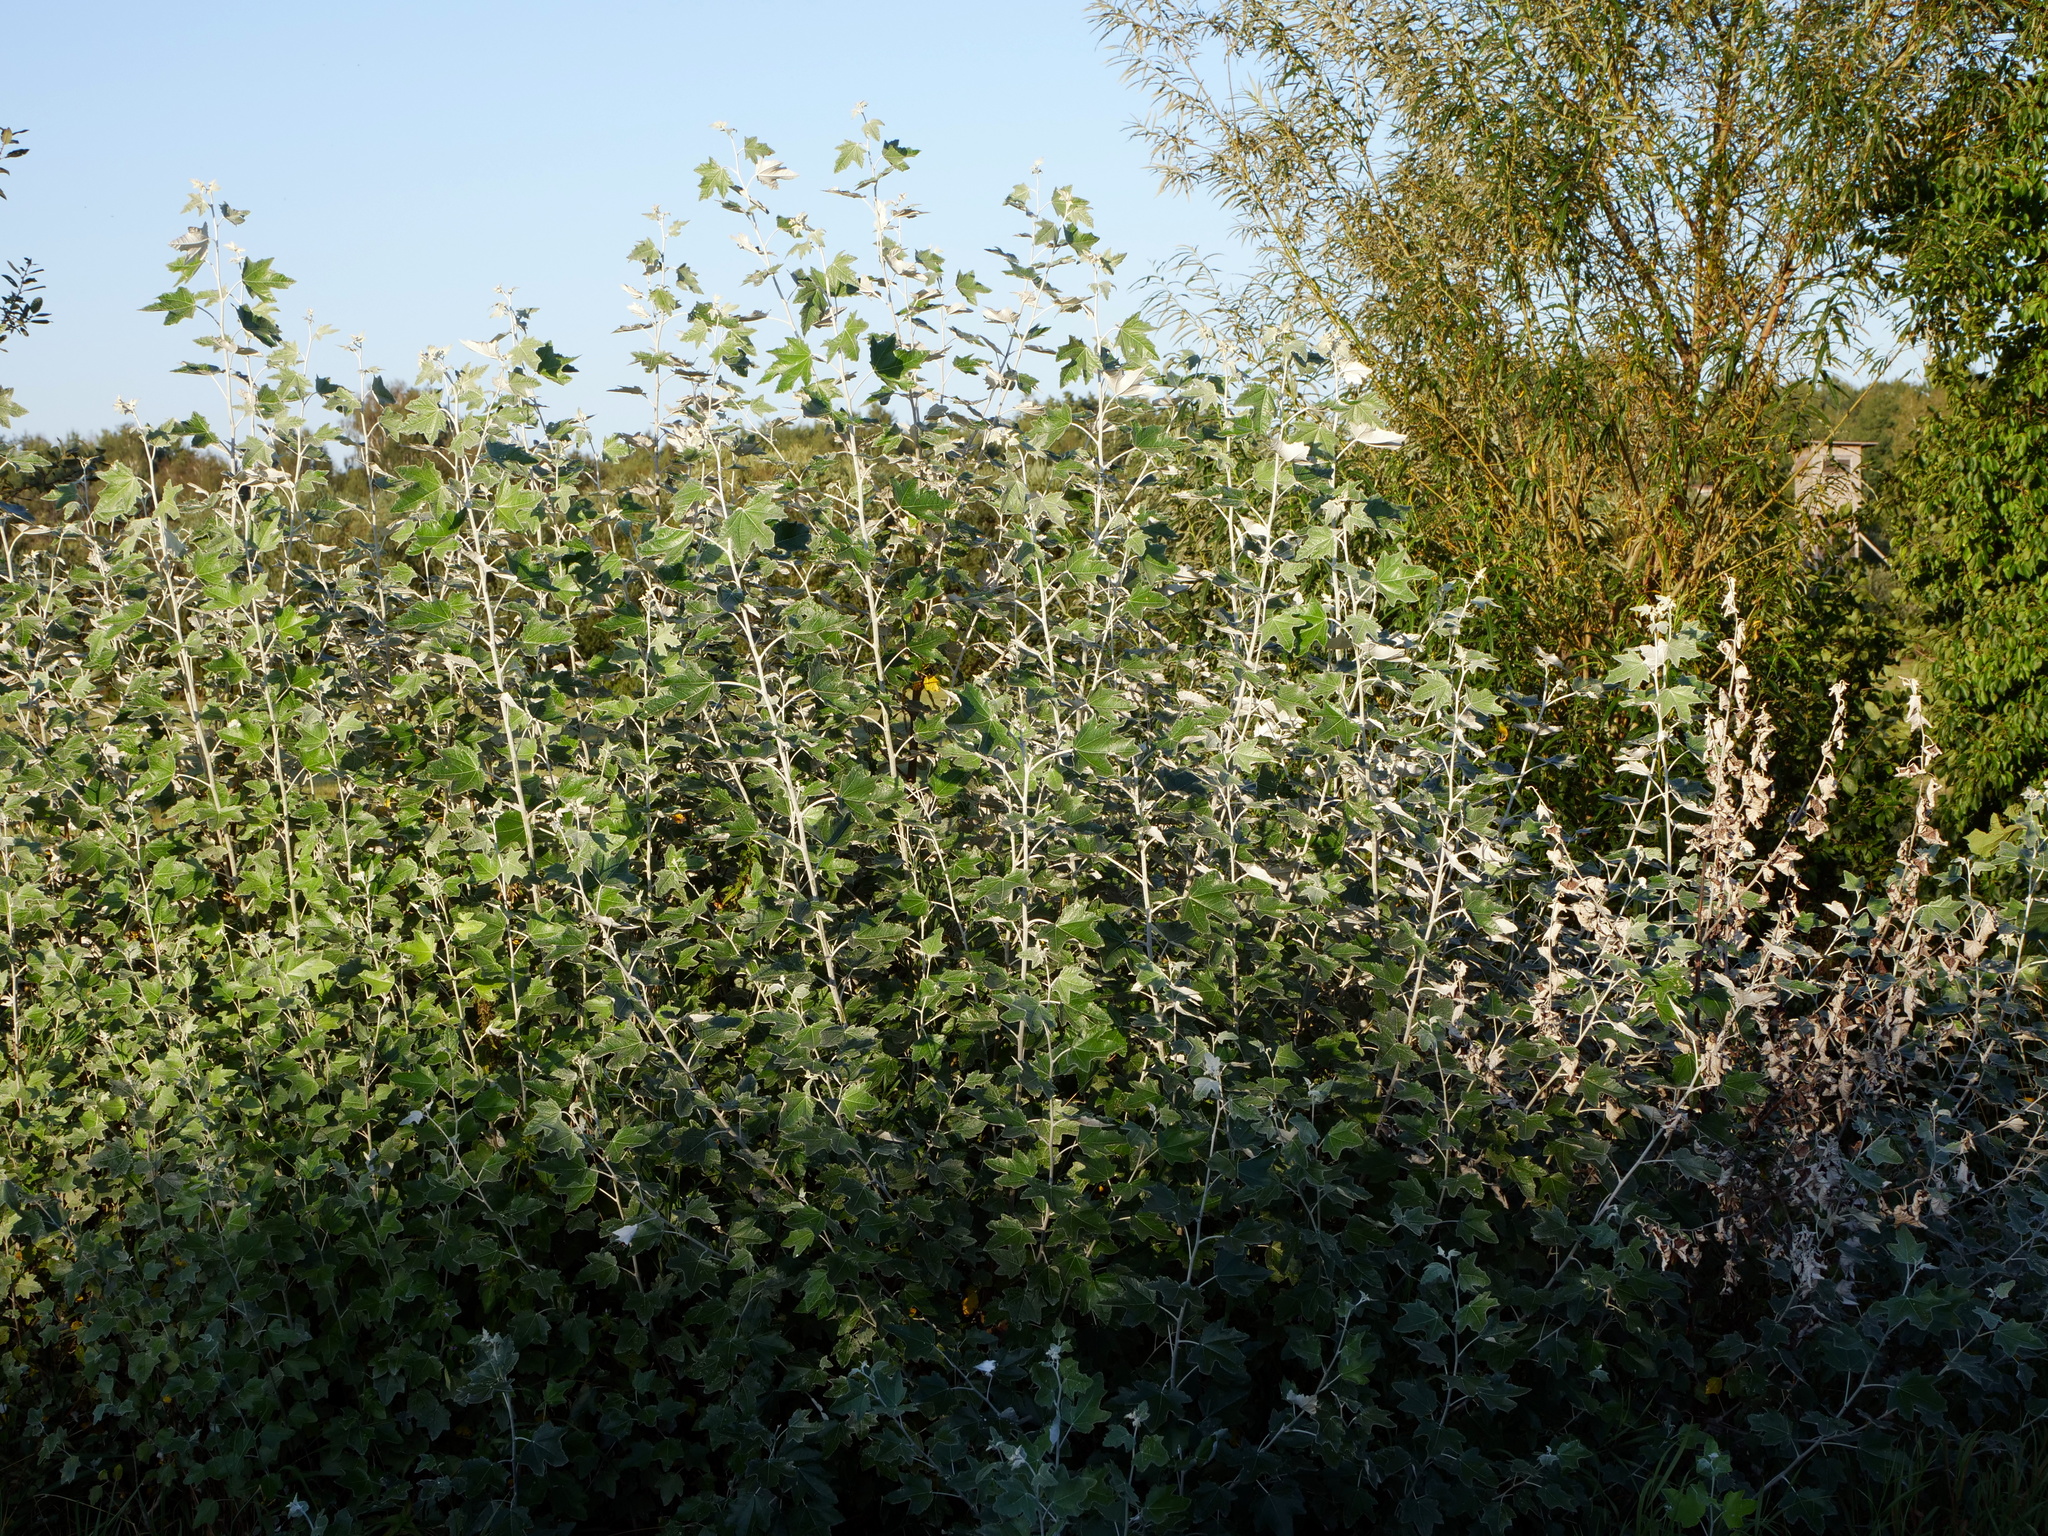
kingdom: Plantae
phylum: Tracheophyta
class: Magnoliopsida
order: Malpighiales
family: Salicaceae
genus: Populus
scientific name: Populus alba
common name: White poplar
